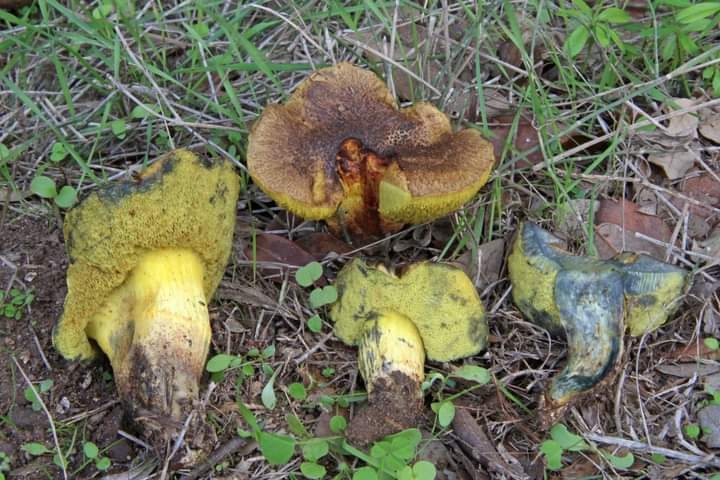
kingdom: Fungi
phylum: Basidiomycota
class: Agaricomycetes
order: Boletales
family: Boletaceae
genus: Alessioporus
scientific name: Alessioporus ichnusanus
